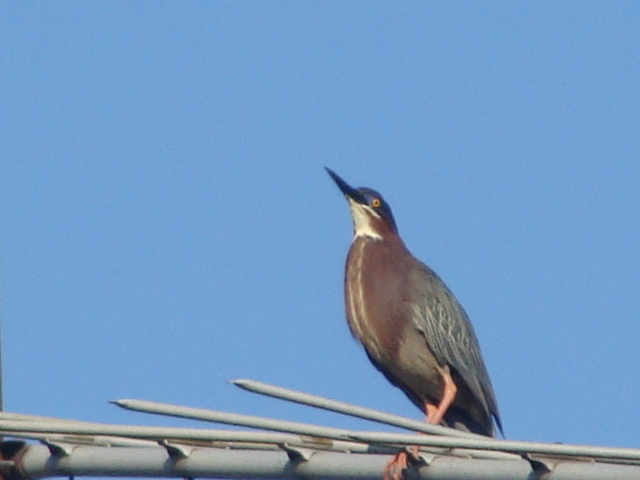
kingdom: Animalia
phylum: Chordata
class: Aves
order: Pelecaniformes
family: Ardeidae
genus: Butorides
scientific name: Butorides virescens
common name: Green heron
